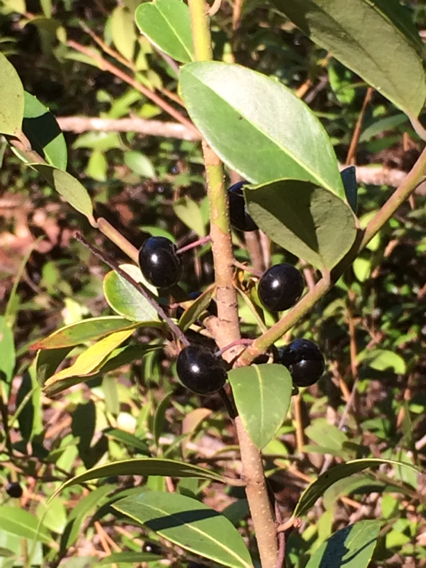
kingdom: Plantae
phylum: Tracheophyta
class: Magnoliopsida
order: Aquifoliales
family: Aquifoliaceae
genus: Ilex
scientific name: Ilex coriacea
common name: Sweet gallberry
